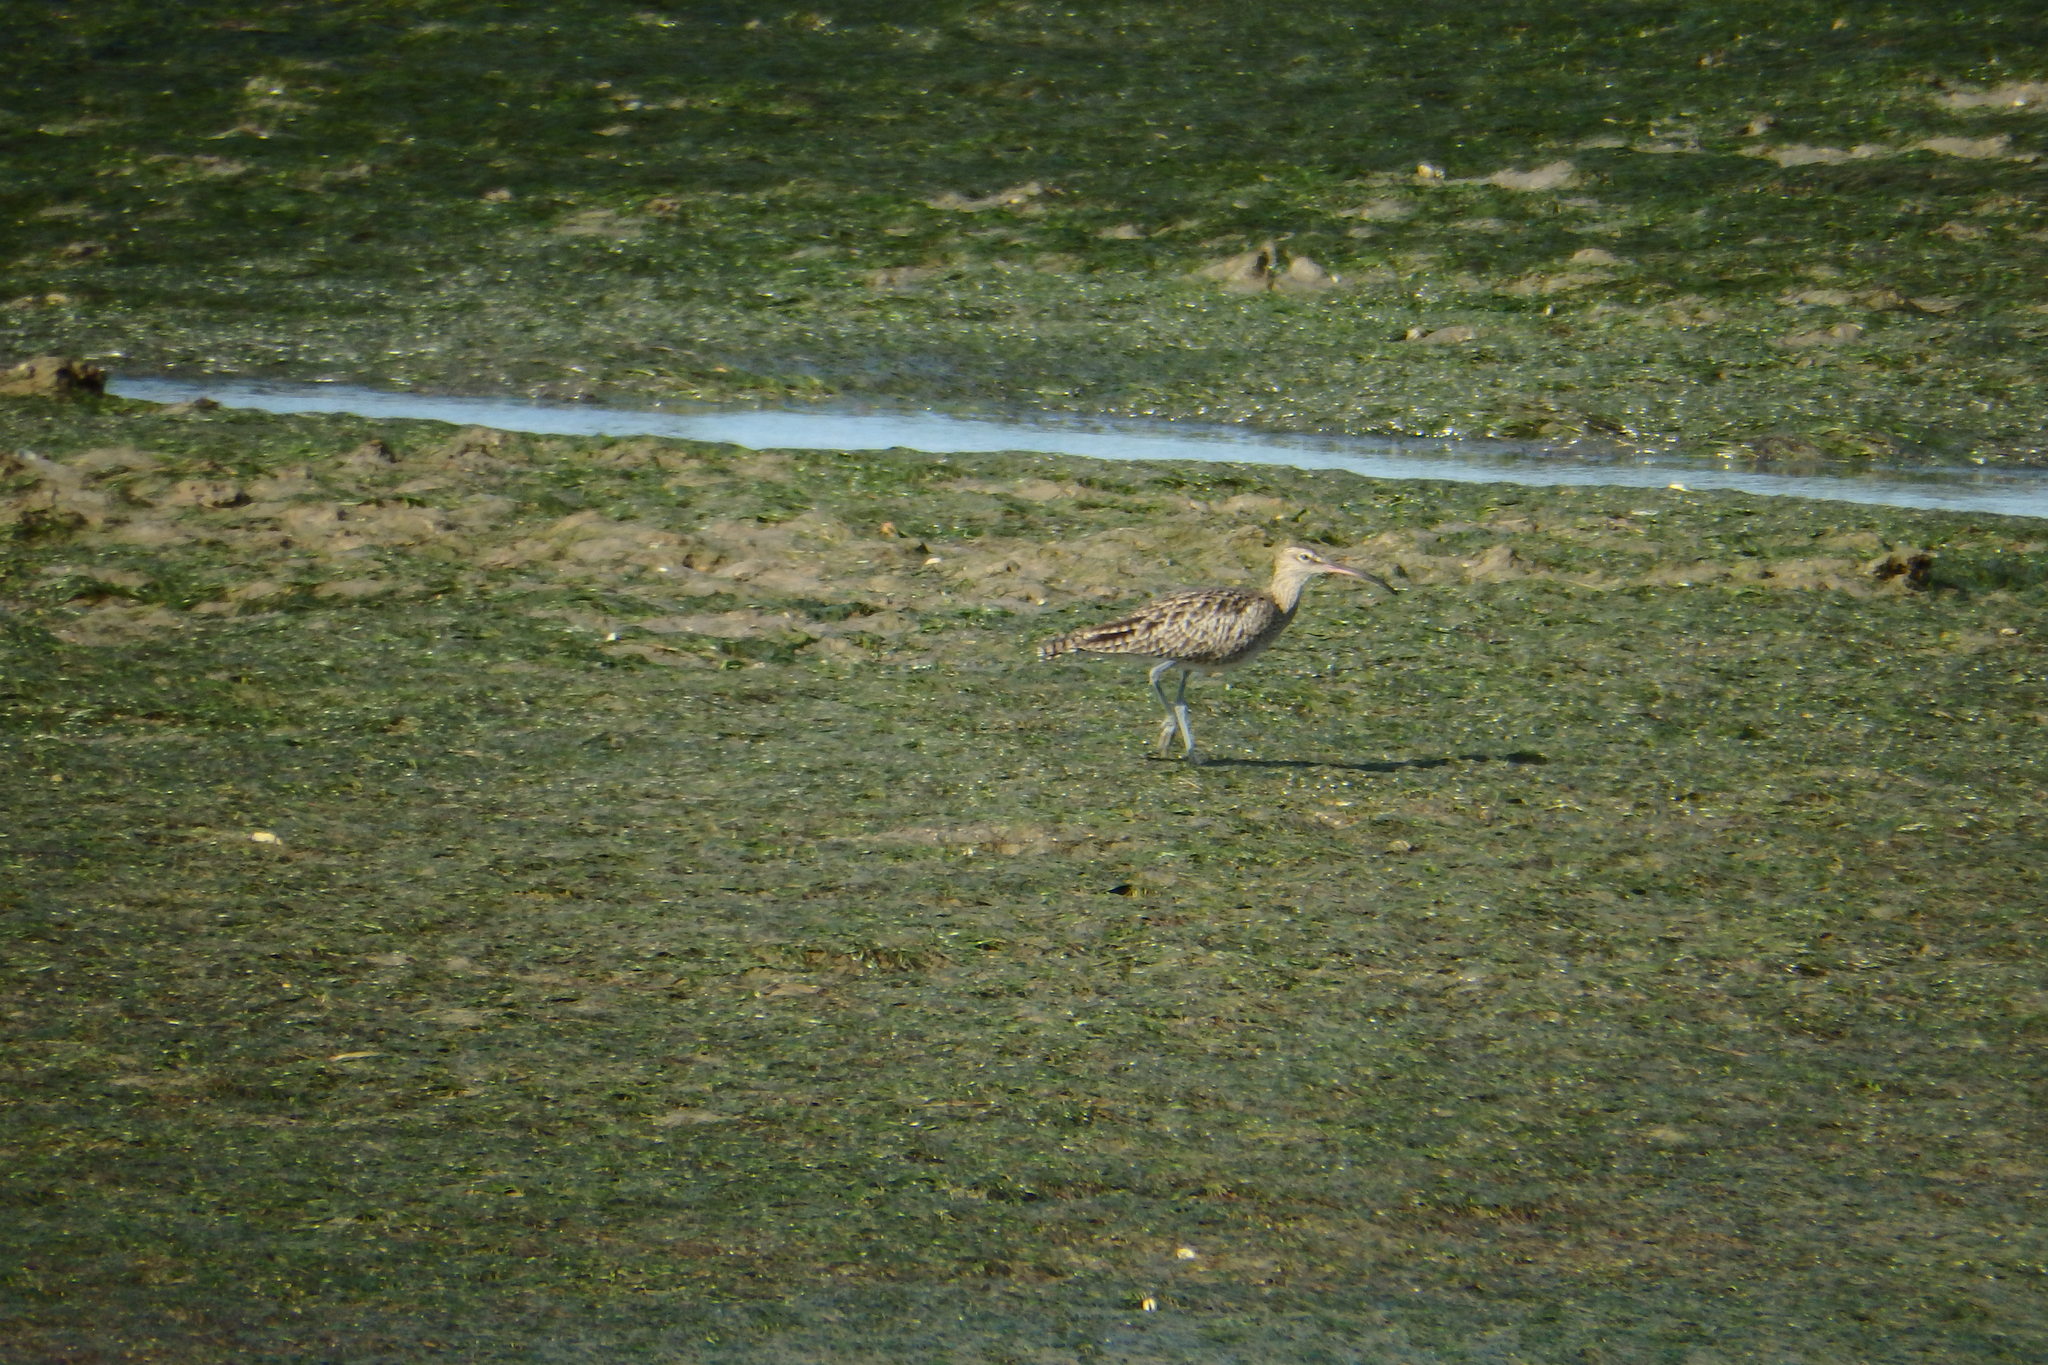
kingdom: Animalia
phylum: Chordata
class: Aves
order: Charadriiformes
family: Scolopacidae
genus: Numenius
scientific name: Numenius phaeopus
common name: Whimbrel
